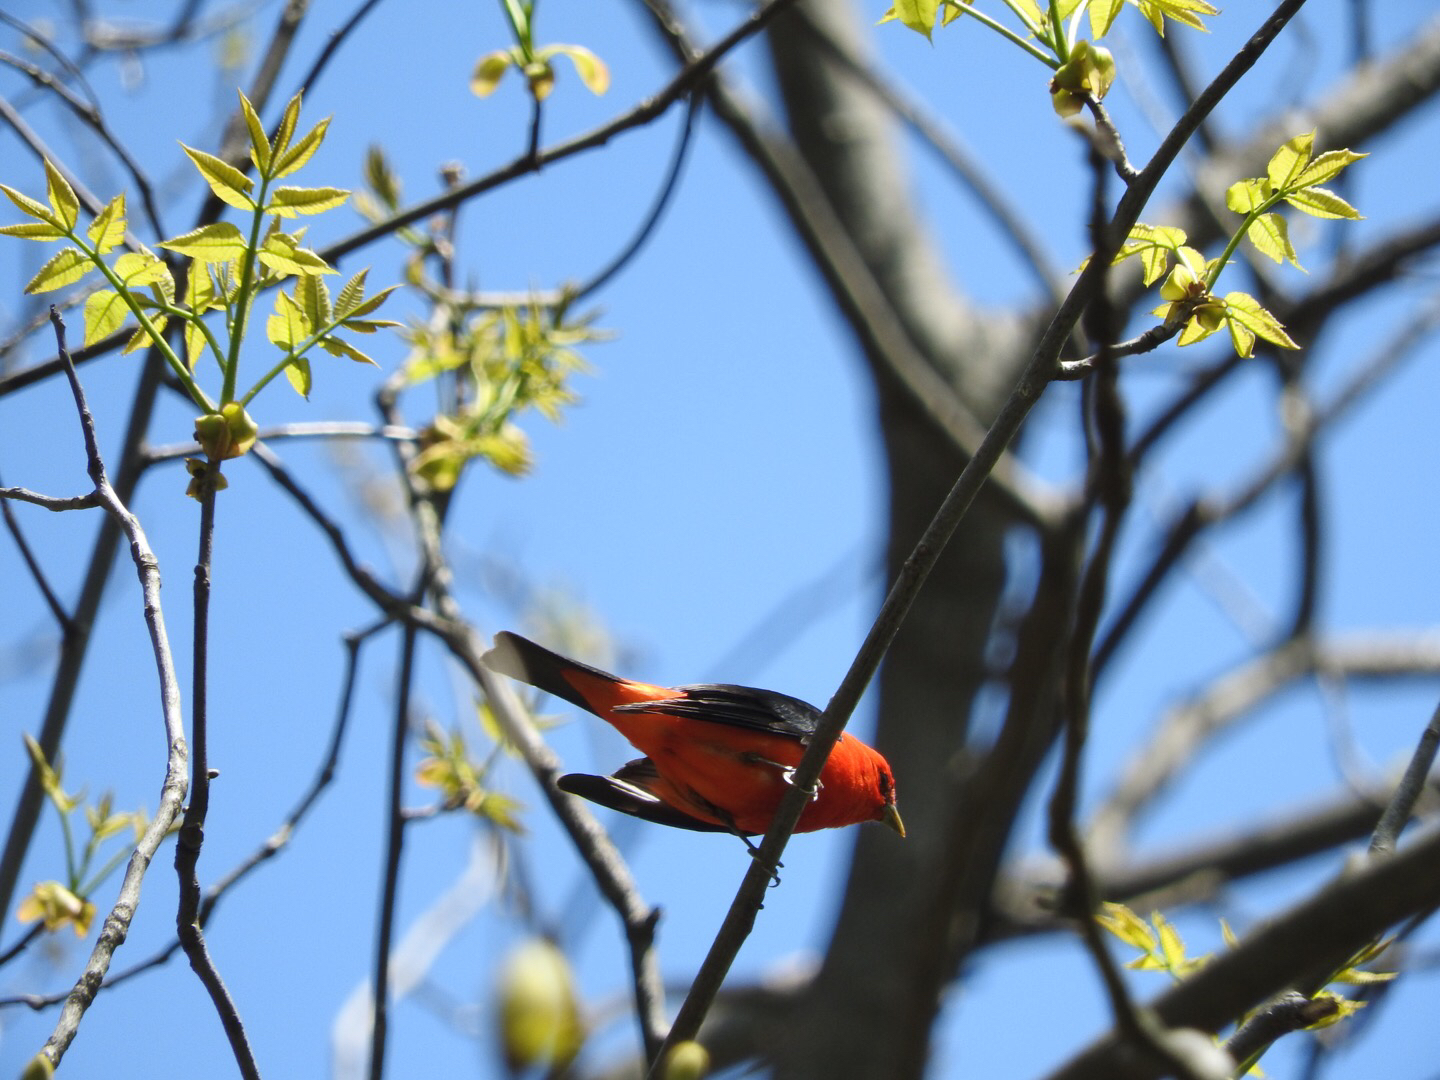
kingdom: Animalia
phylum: Chordata
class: Aves
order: Passeriformes
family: Cardinalidae
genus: Piranga
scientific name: Piranga olivacea
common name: Scarlet tanager
